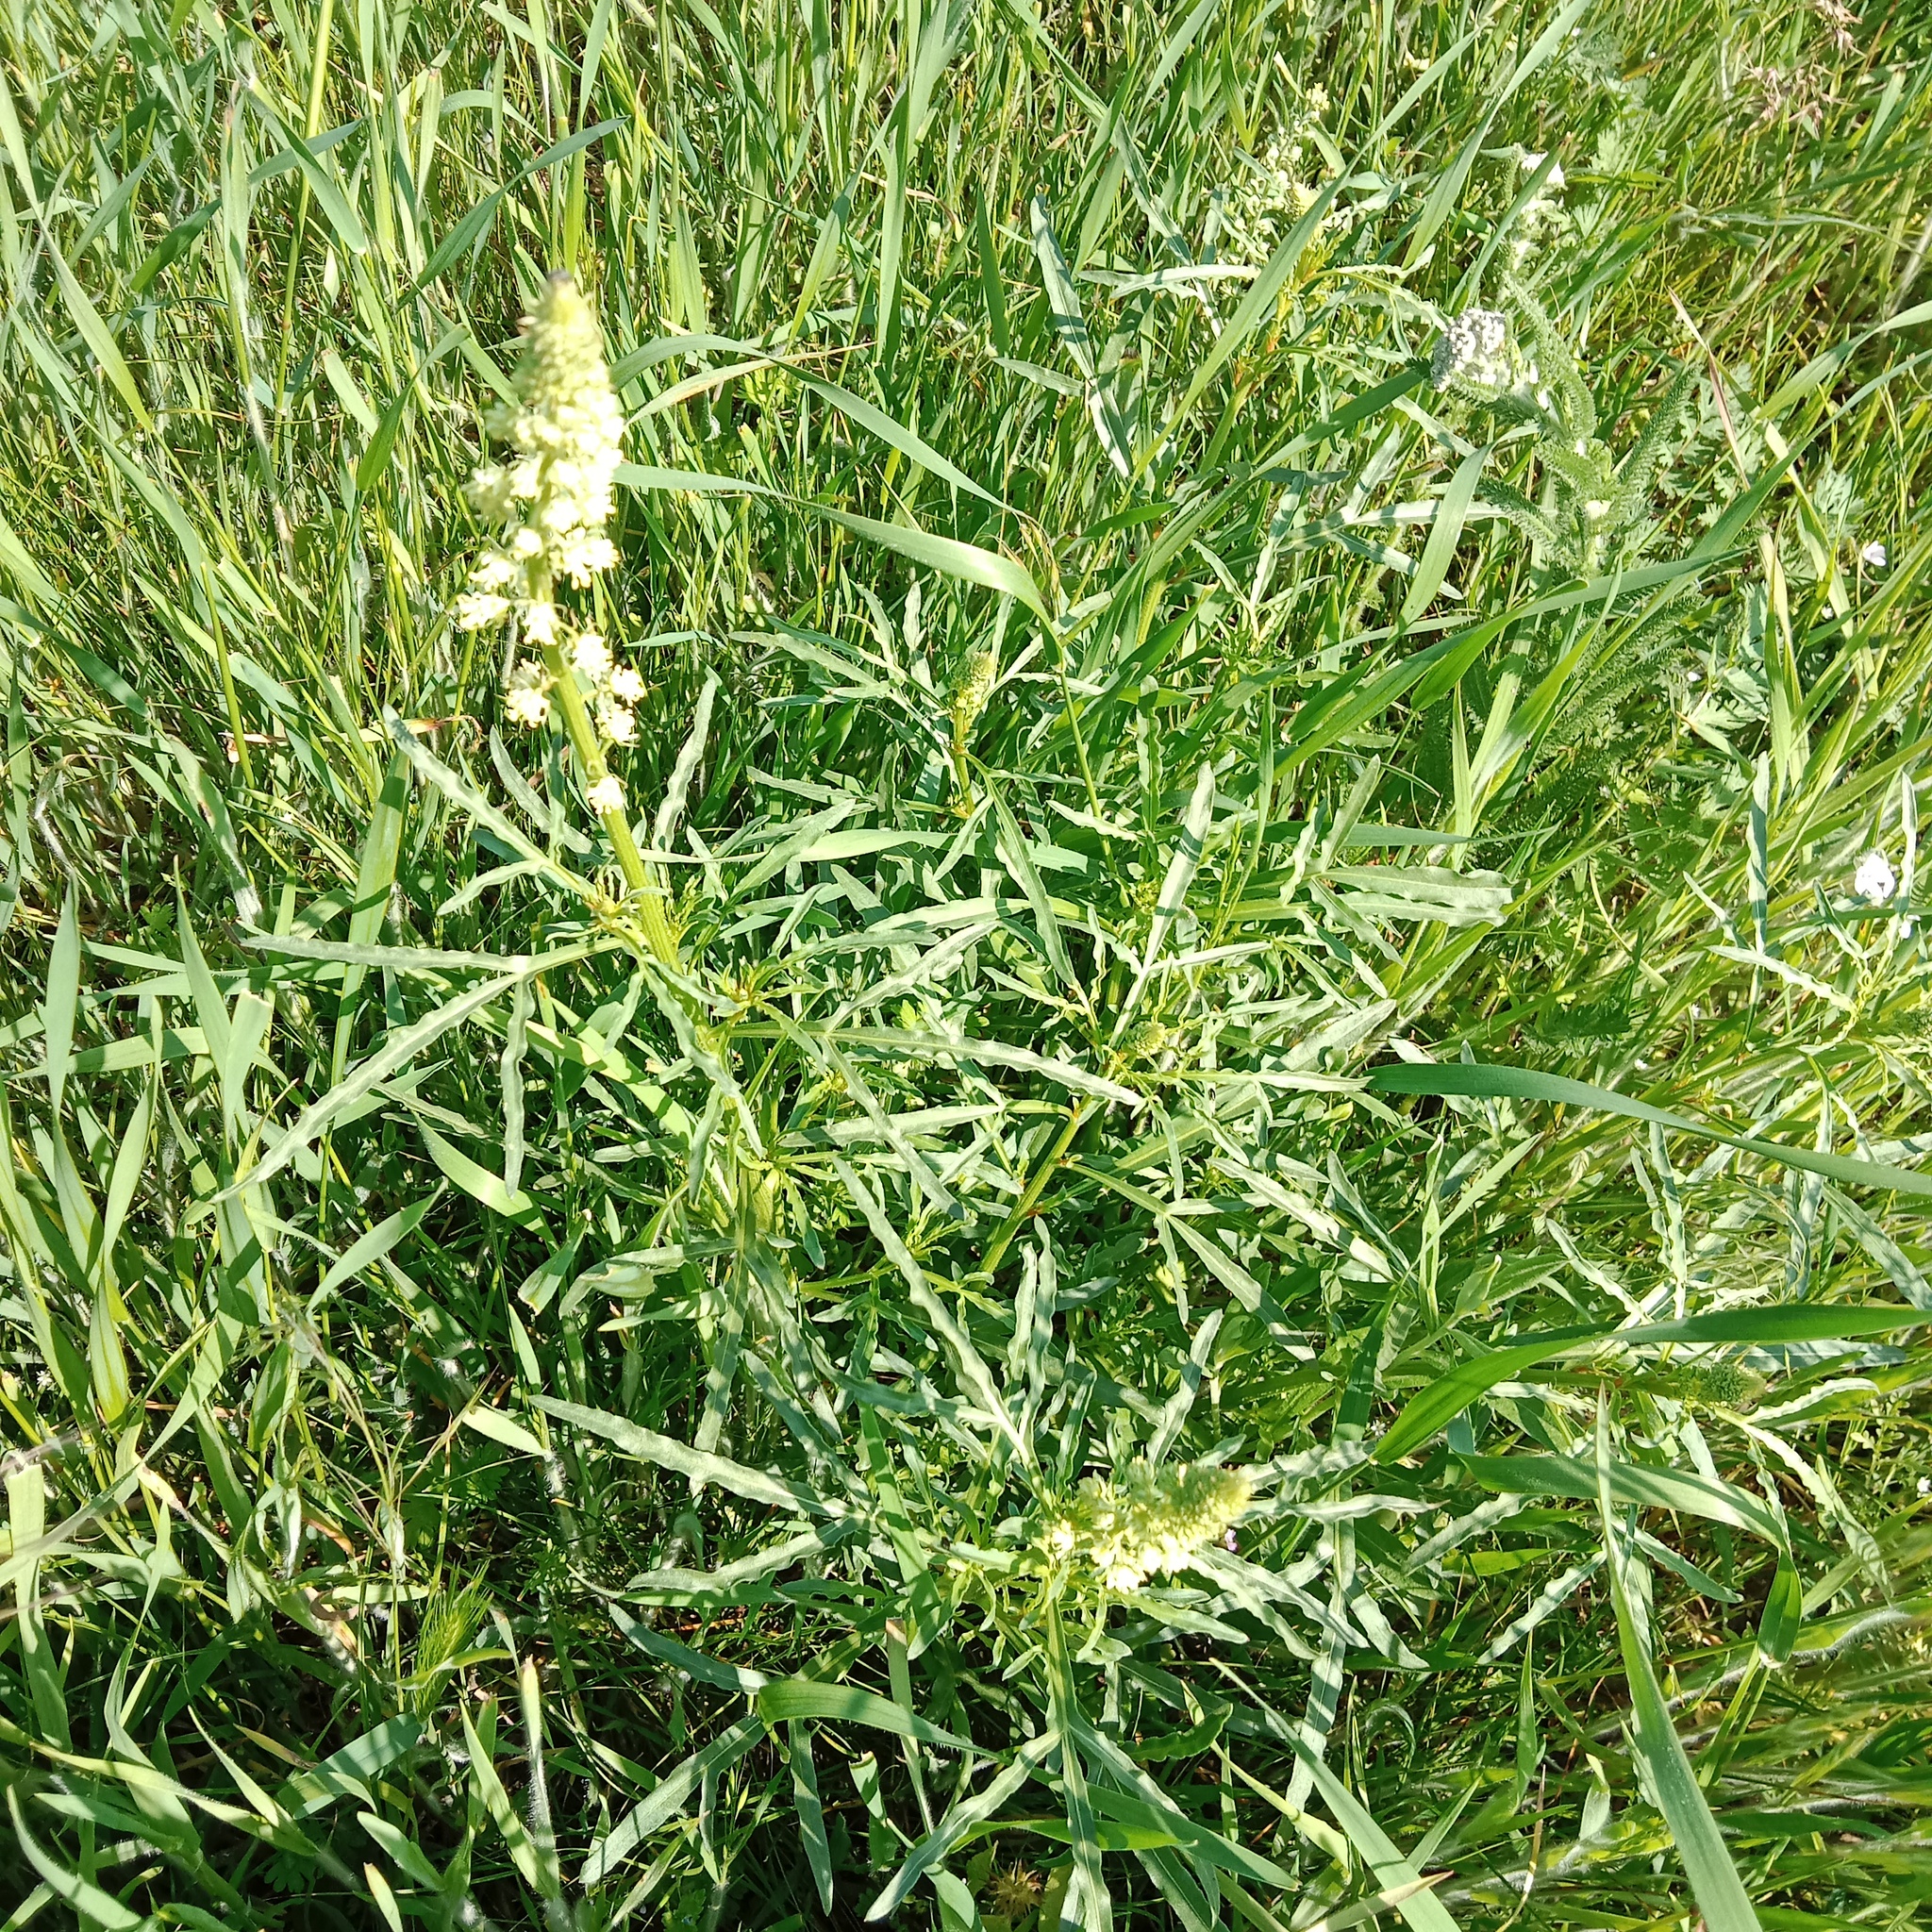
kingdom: Plantae
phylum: Tracheophyta
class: Magnoliopsida
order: Brassicales
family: Resedaceae
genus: Reseda
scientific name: Reseda lutea
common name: Wild mignonette
